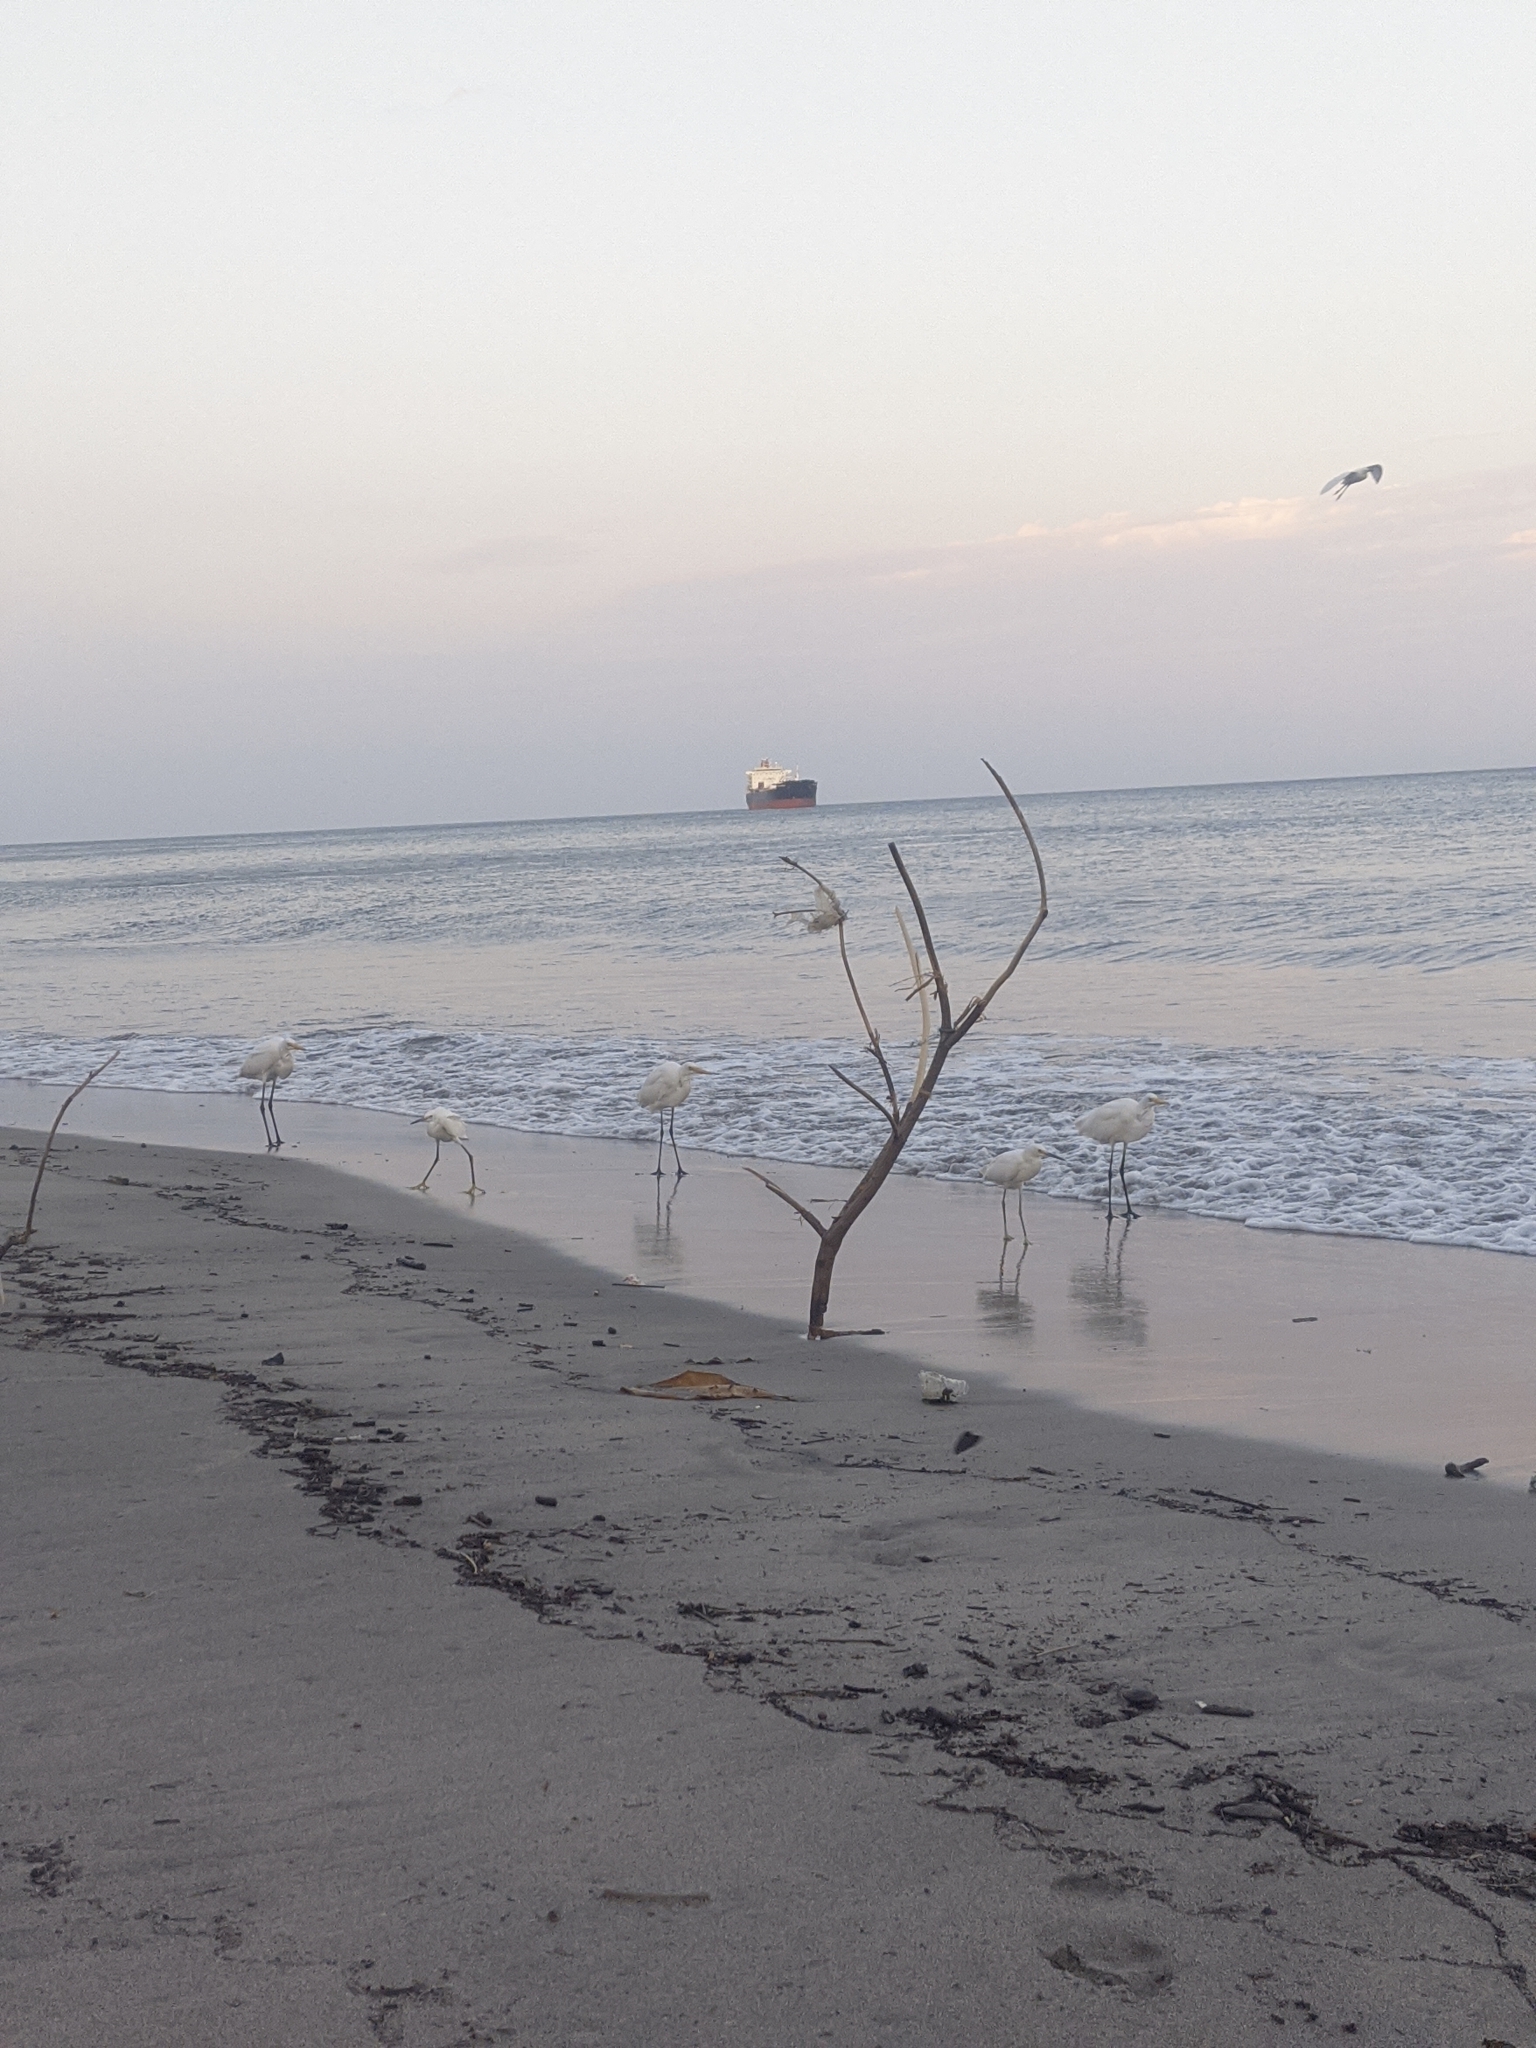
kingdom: Animalia
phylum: Chordata
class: Aves
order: Pelecaniformes
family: Ardeidae
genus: Egretta
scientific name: Egretta thula
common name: Snowy egret
